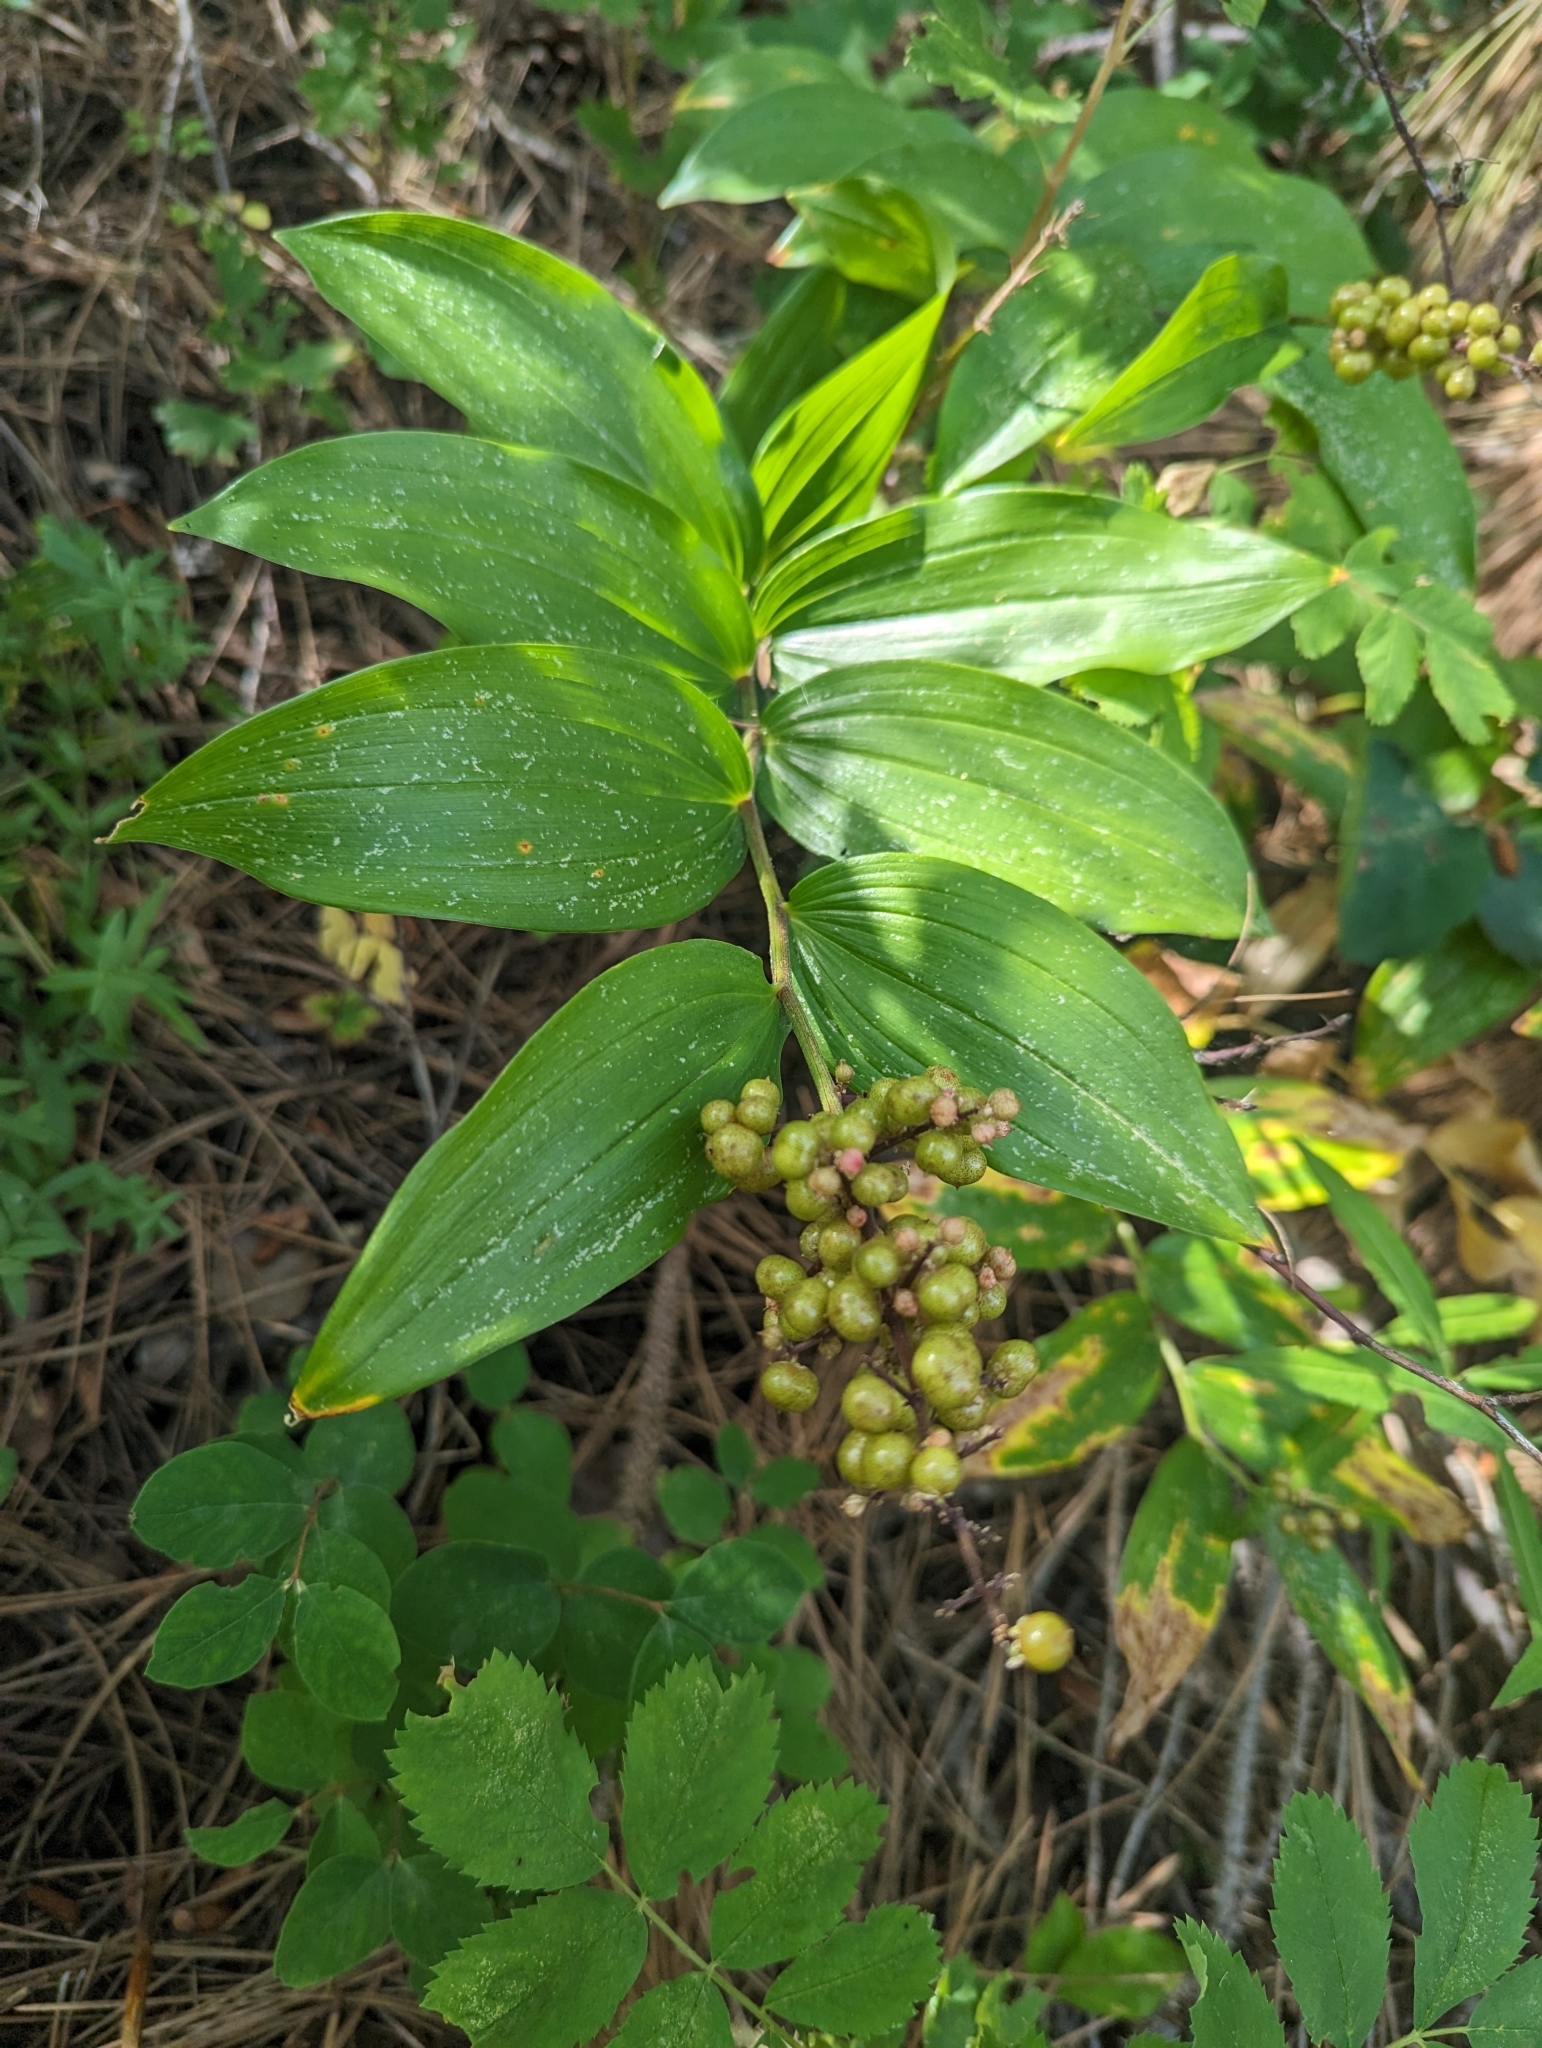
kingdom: Plantae
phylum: Tracheophyta
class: Liliopsida
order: Asparagales
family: Asparagaceae
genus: Maianthemum
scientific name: Maianthemum racemosum
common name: False spikenard
